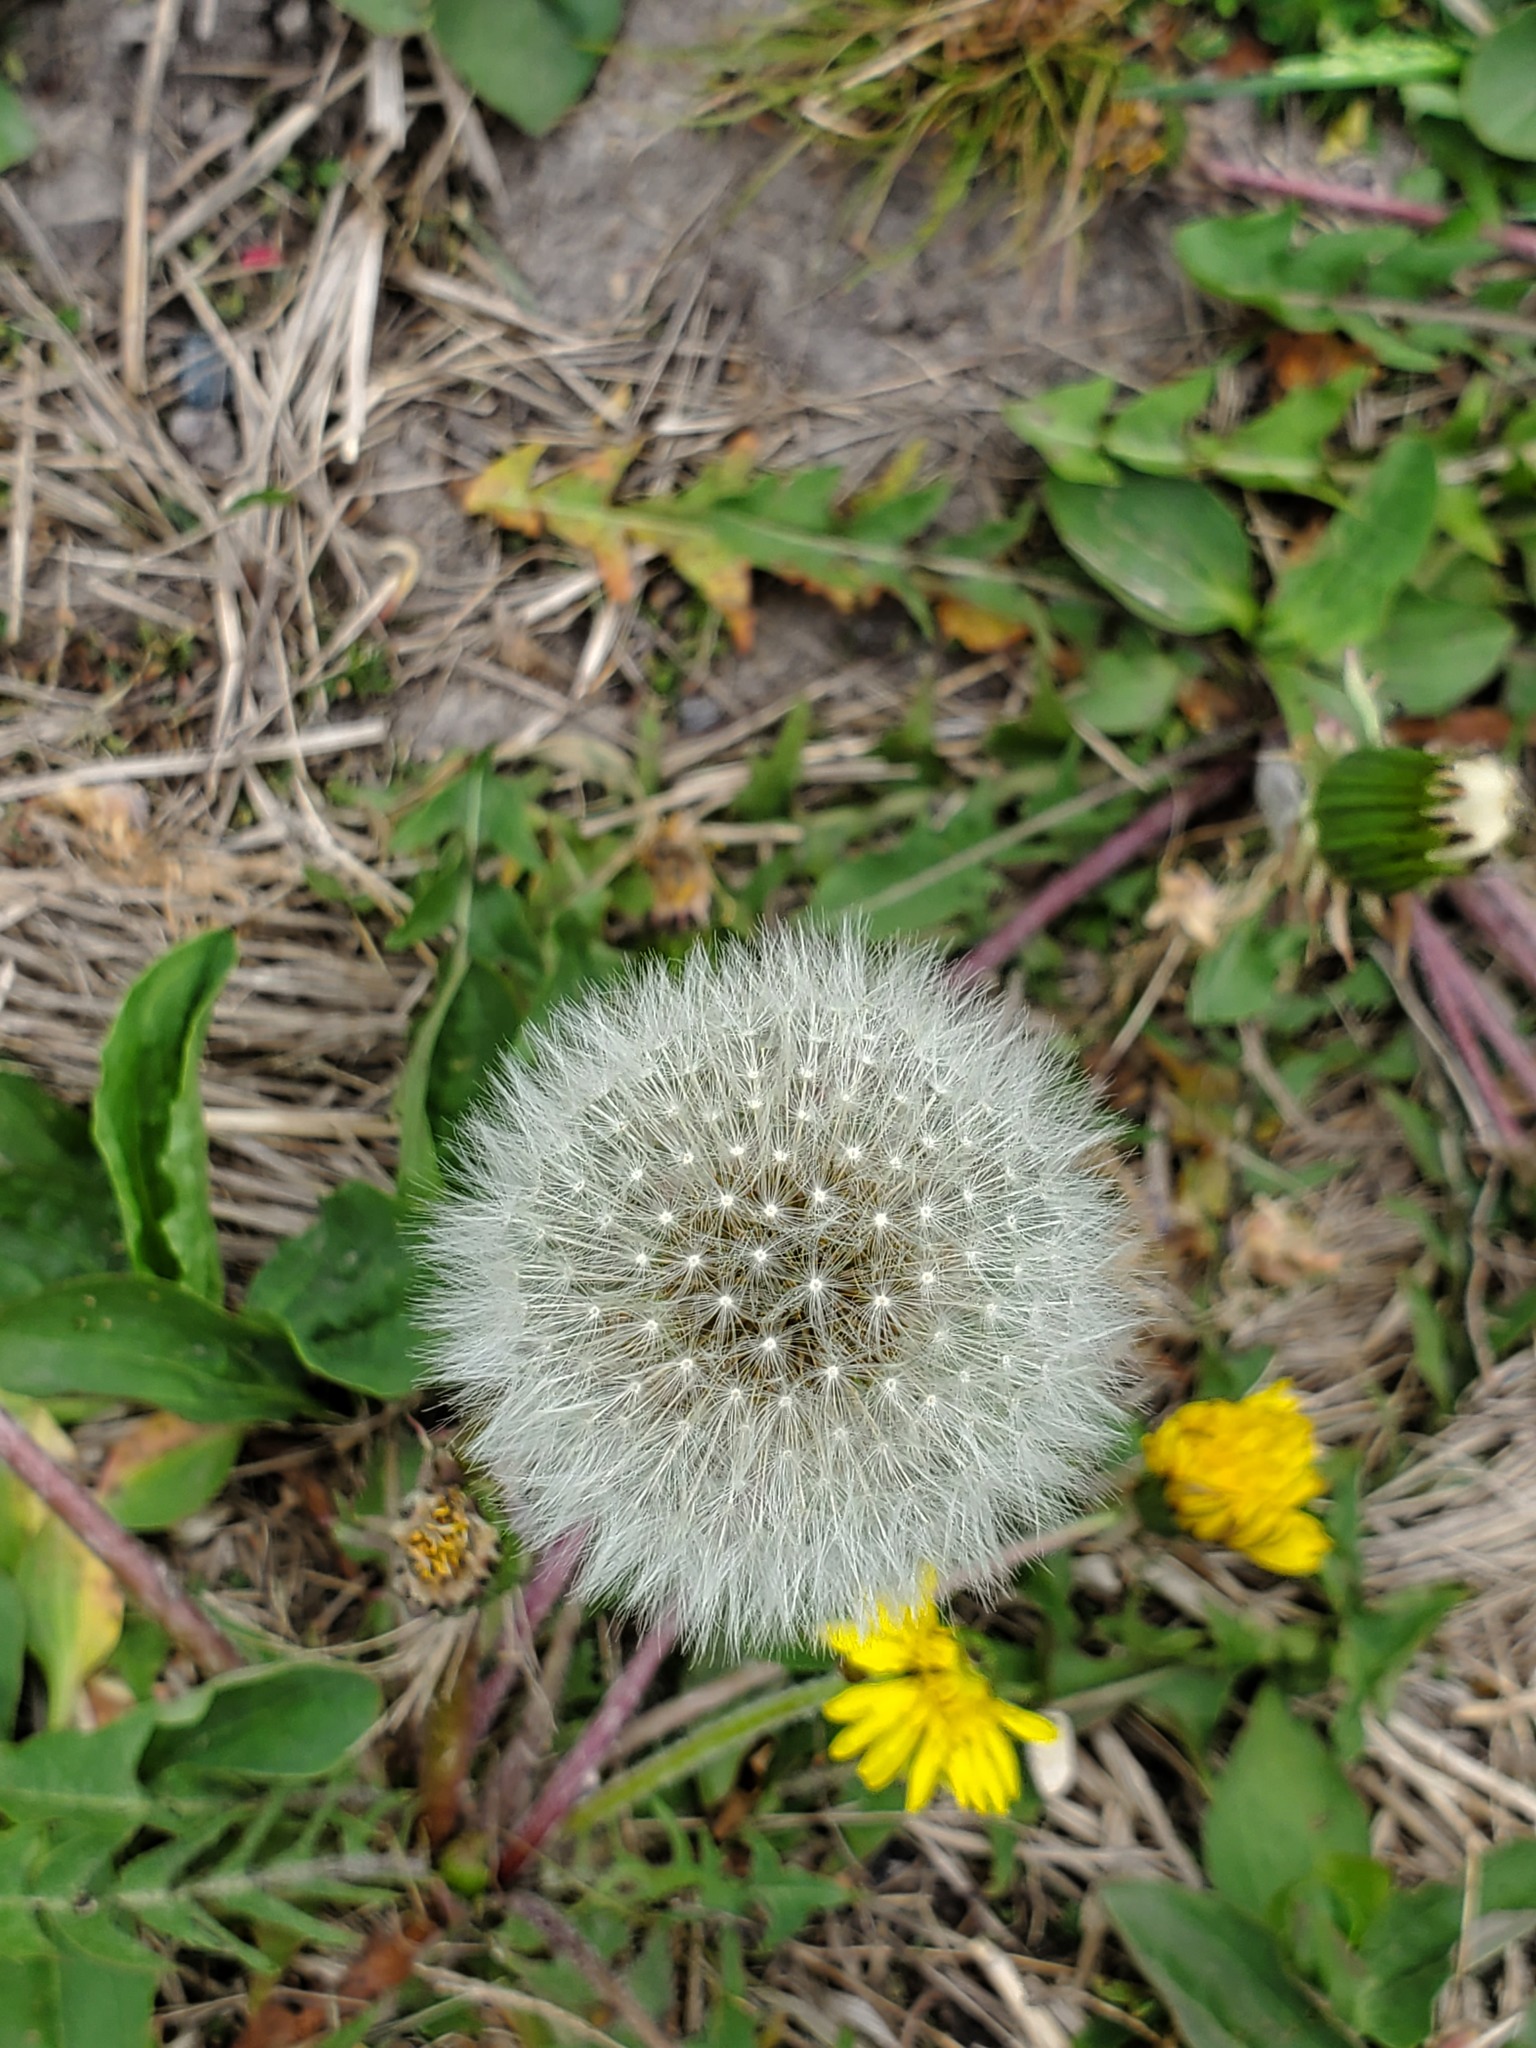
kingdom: Plantae
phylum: Tracheophyta
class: Magnoliopsida
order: Asterales
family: Asteraceae
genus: Taraxacum
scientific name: Taraxacum officinale
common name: Common dandelion
